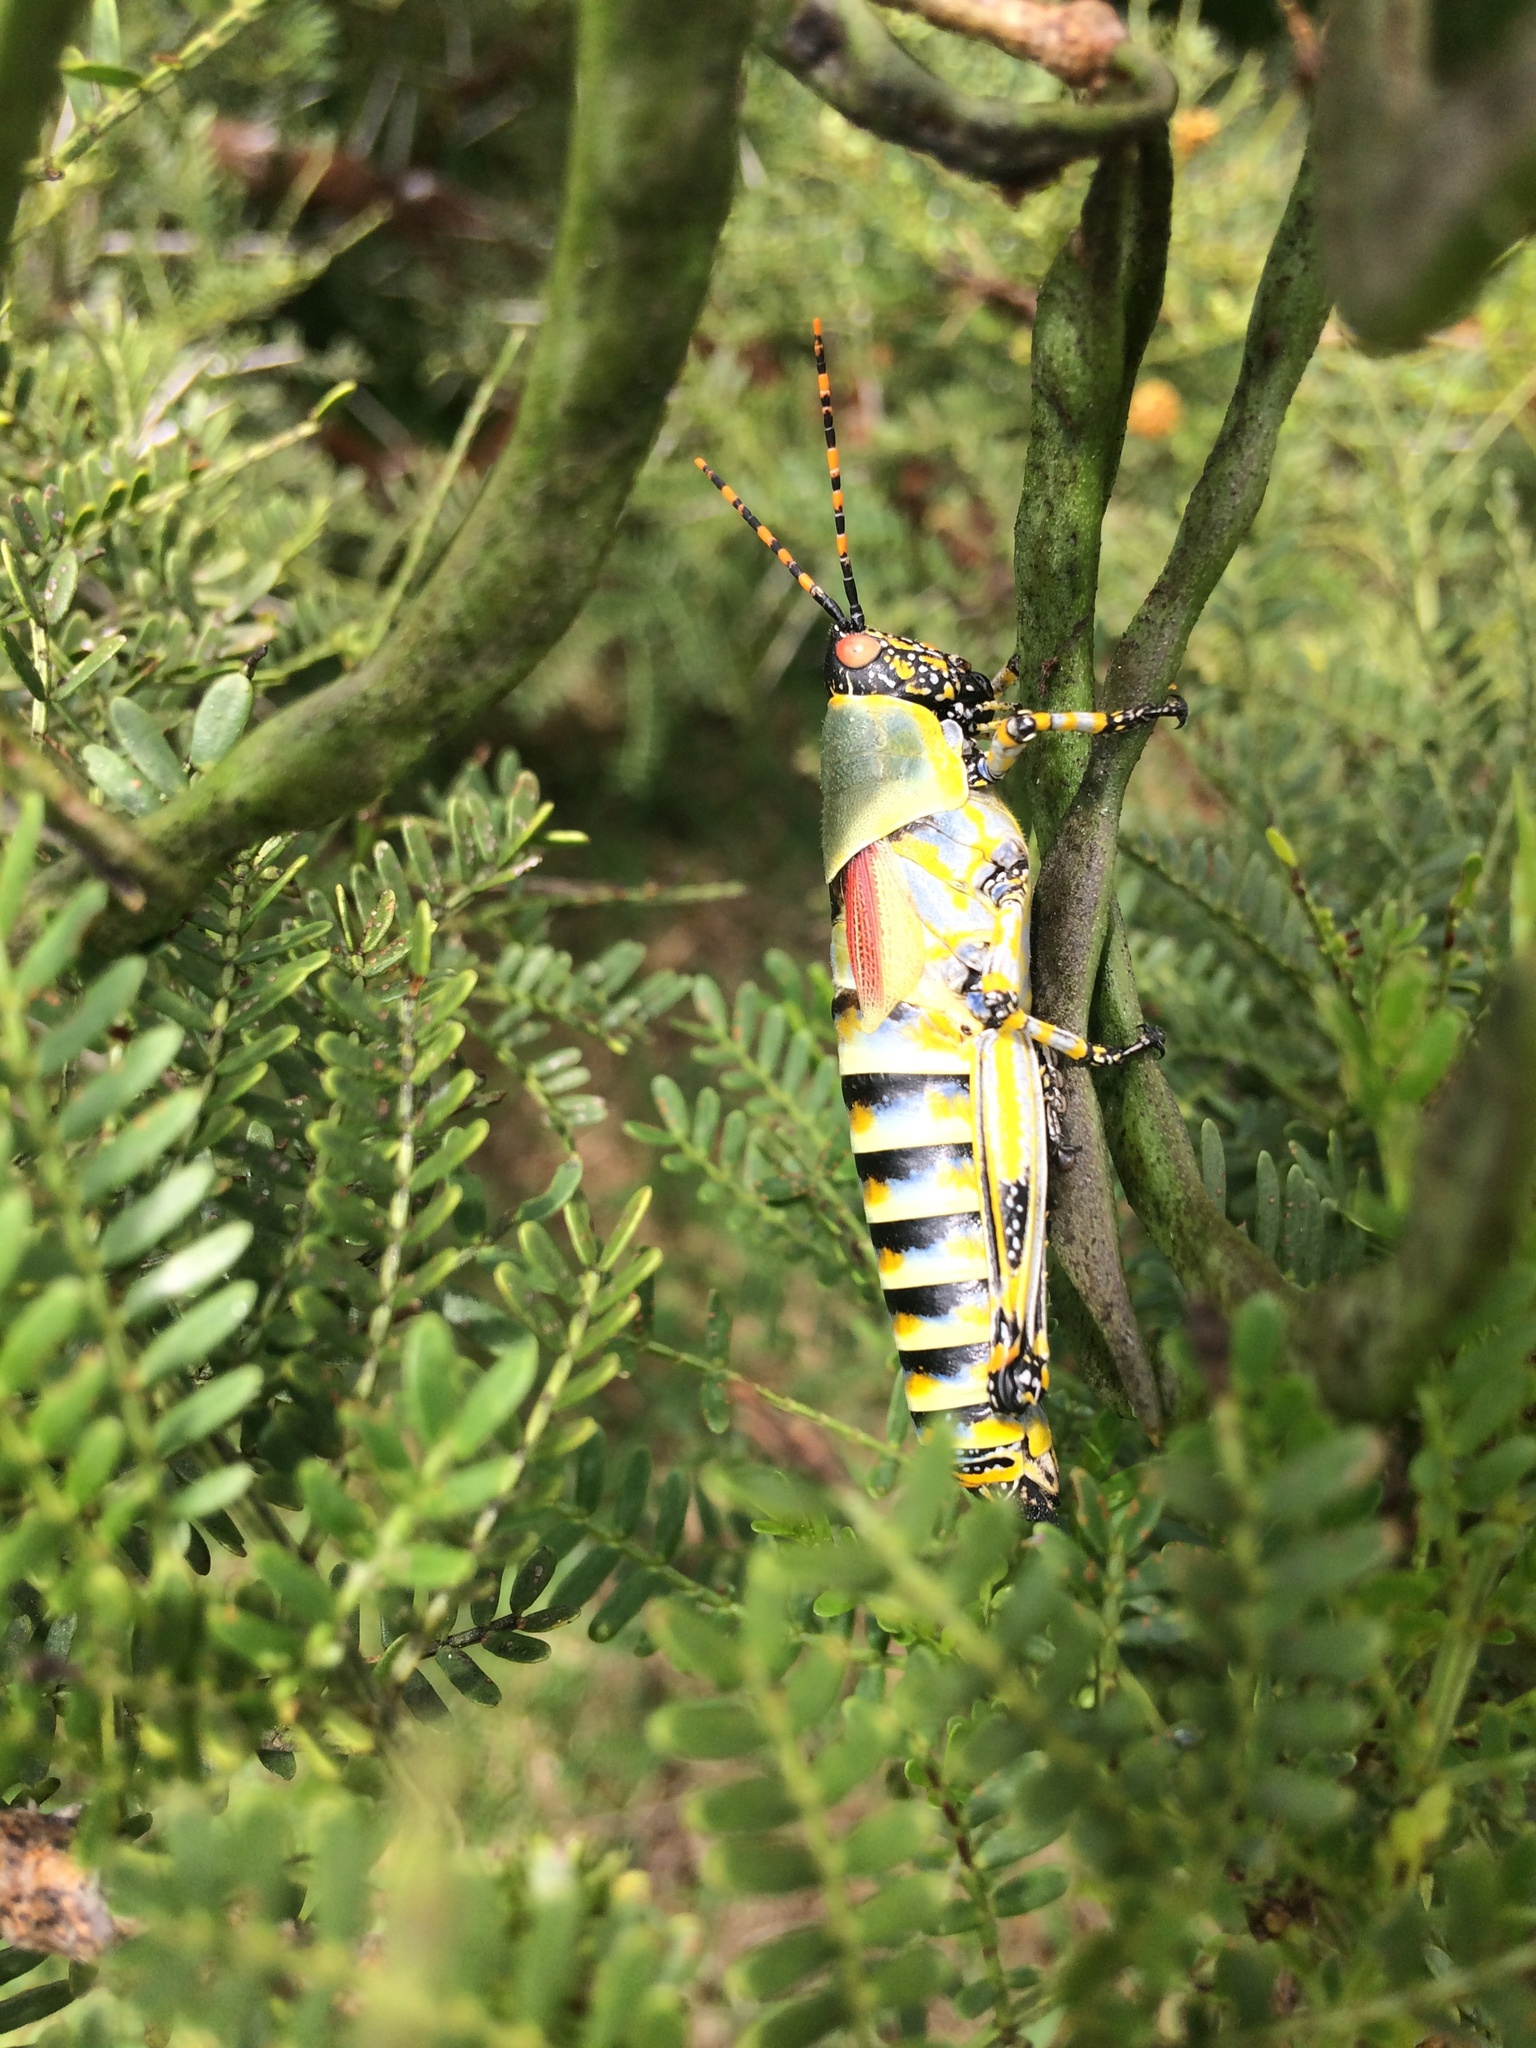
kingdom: Animalia
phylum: Arthropoda
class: Insecta
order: Orthoptera
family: Pyrgomorphidae
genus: Zonocerus
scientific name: Zonocerus elegans
